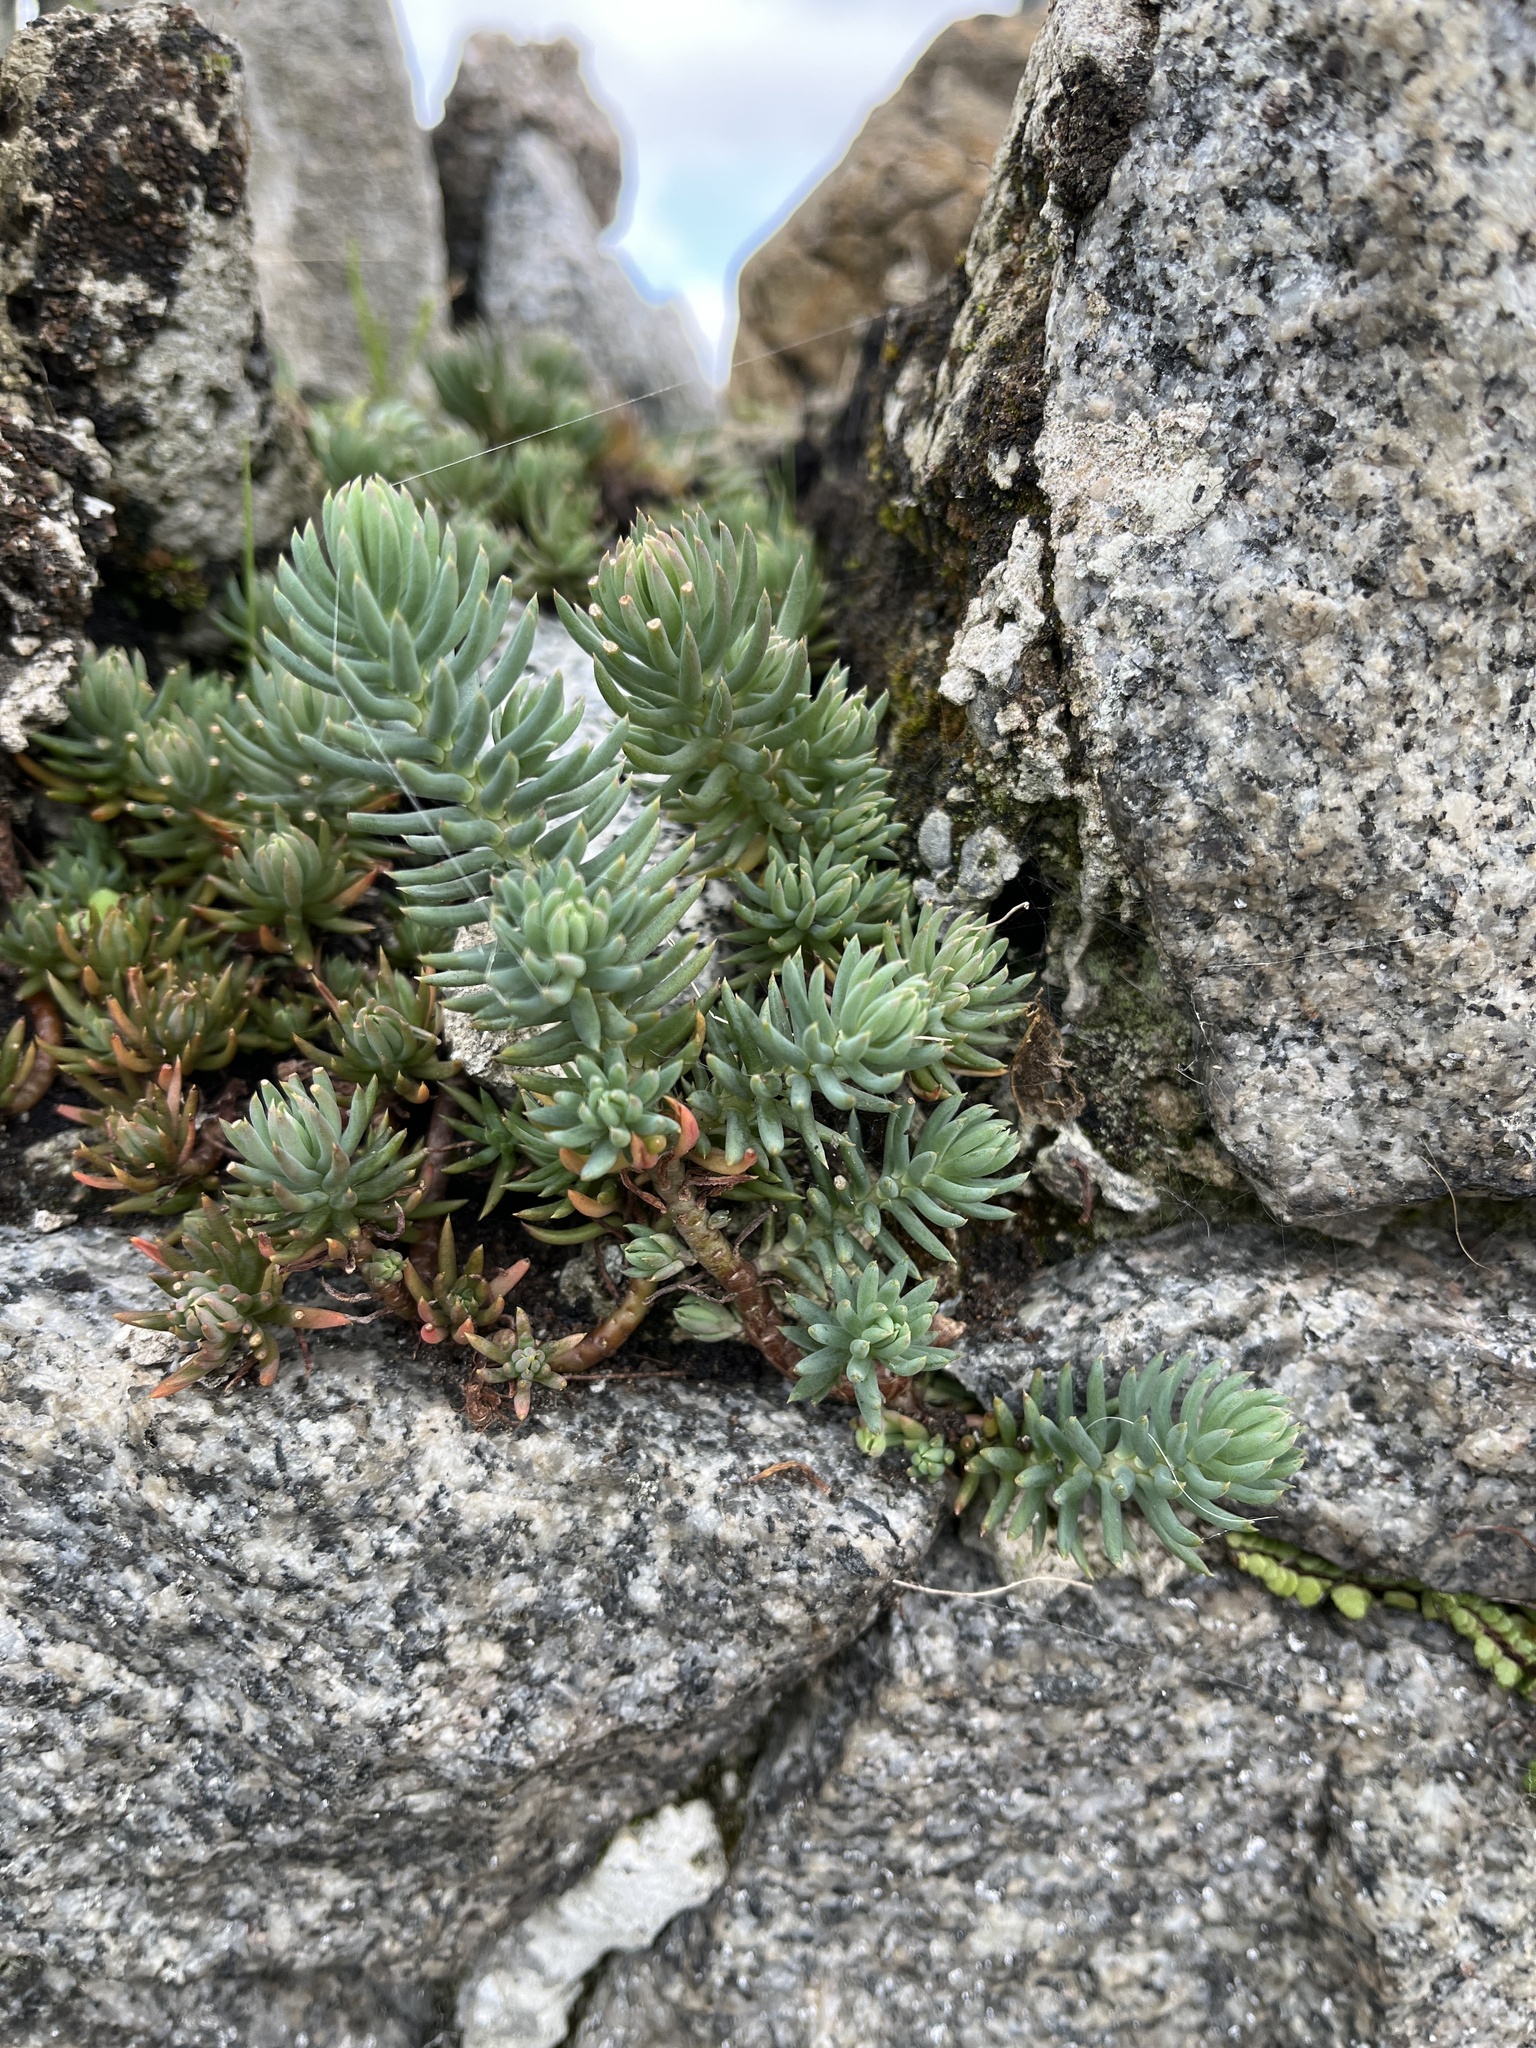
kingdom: Plantae
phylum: Tracheophyta
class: Magnoliopsida
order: Saxifragales
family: Crassulaceae
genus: Petrosedum
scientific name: Petrosedum rupestre
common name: Jenny's stonecrop
